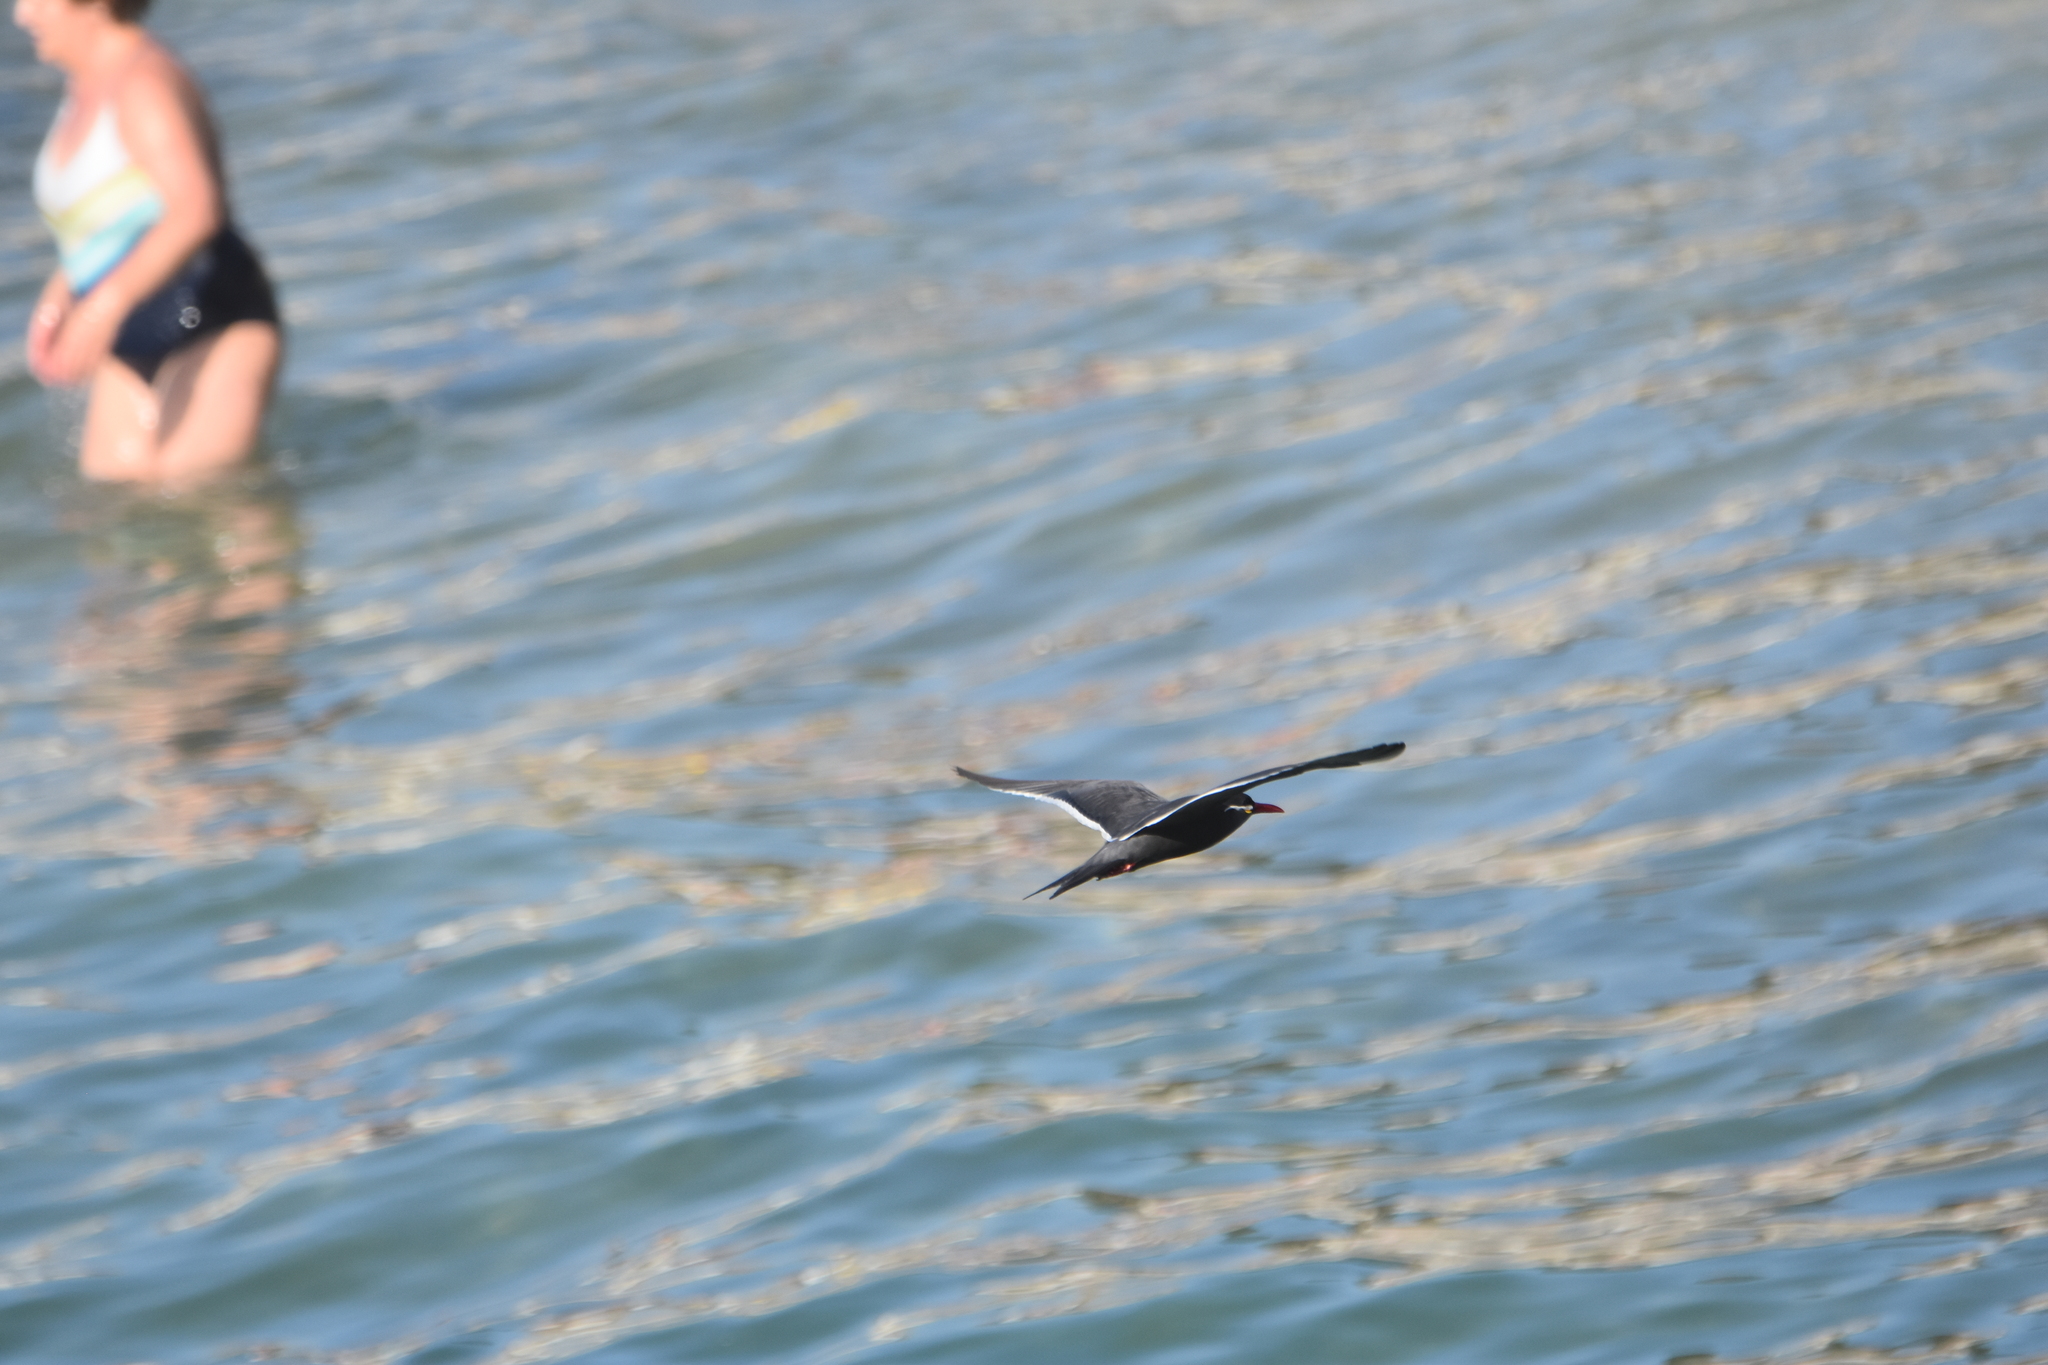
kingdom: Animalia
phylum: Chordata
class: Aves
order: Charadriiformes
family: Laridae
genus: Larosterna
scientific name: Larosterna inca
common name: Inca tern
